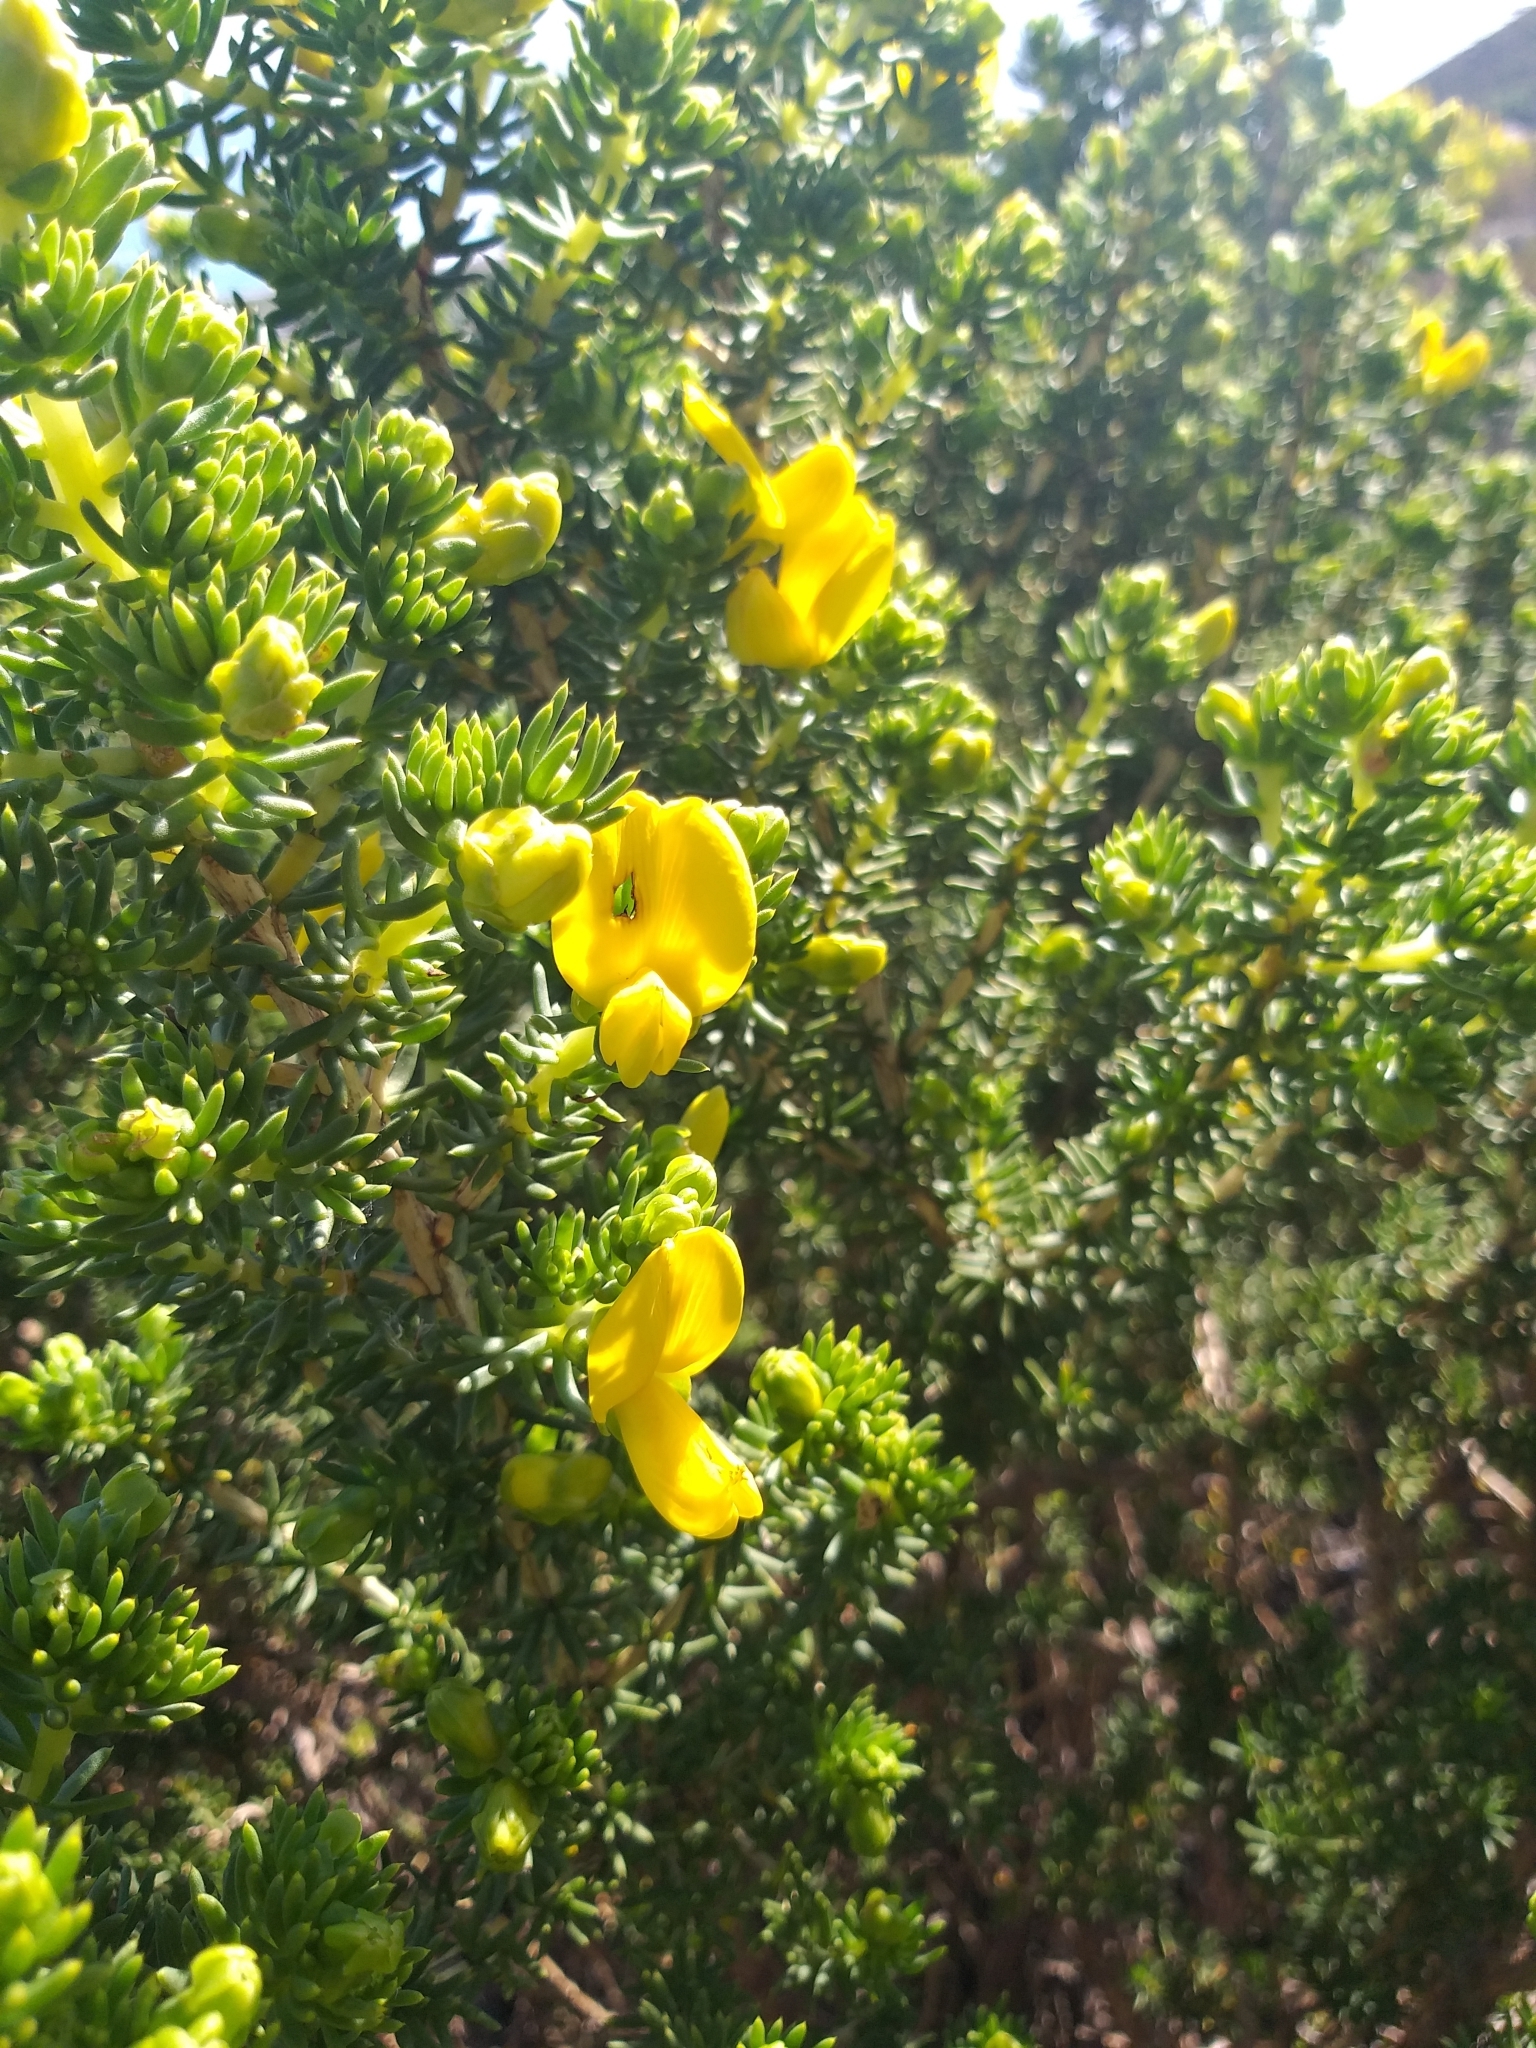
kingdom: Plantae
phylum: Tracheophyta
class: Magnoliopsida
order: Fabales
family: Fabaceae
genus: Aspalathus
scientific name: Aspalathus capensis
